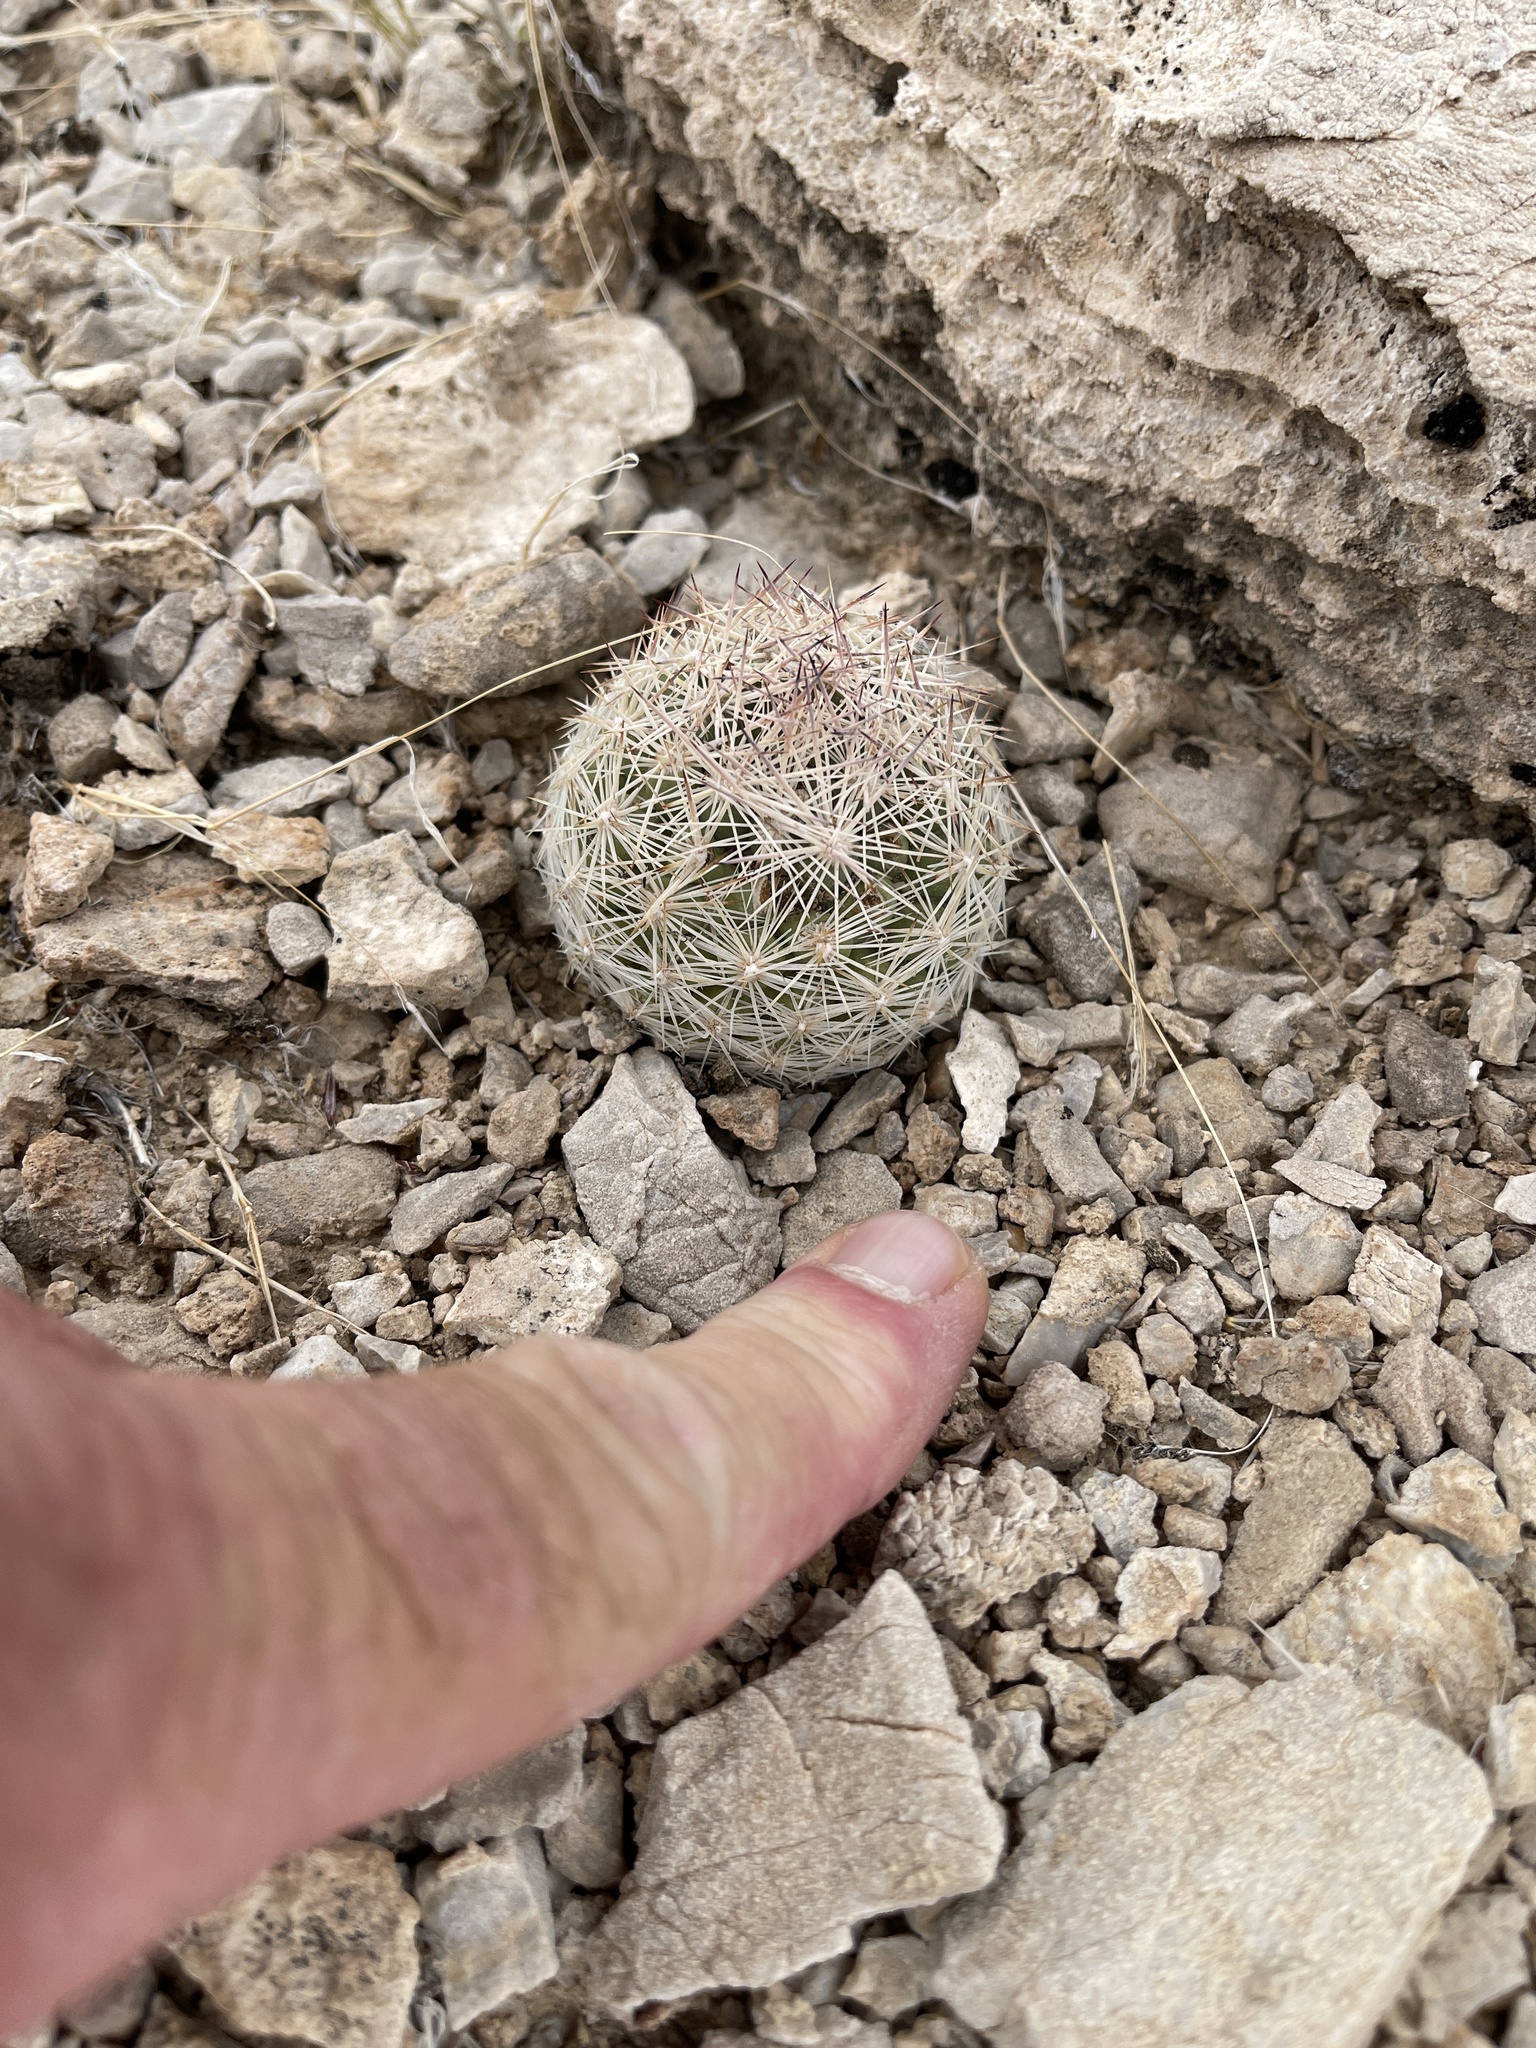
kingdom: Plantae
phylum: Tracheophyta
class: Magnoliopsida
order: Caryophyllales
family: Cactaceae
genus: Pelecyphora
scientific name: Pelecyphora dasyacantha
